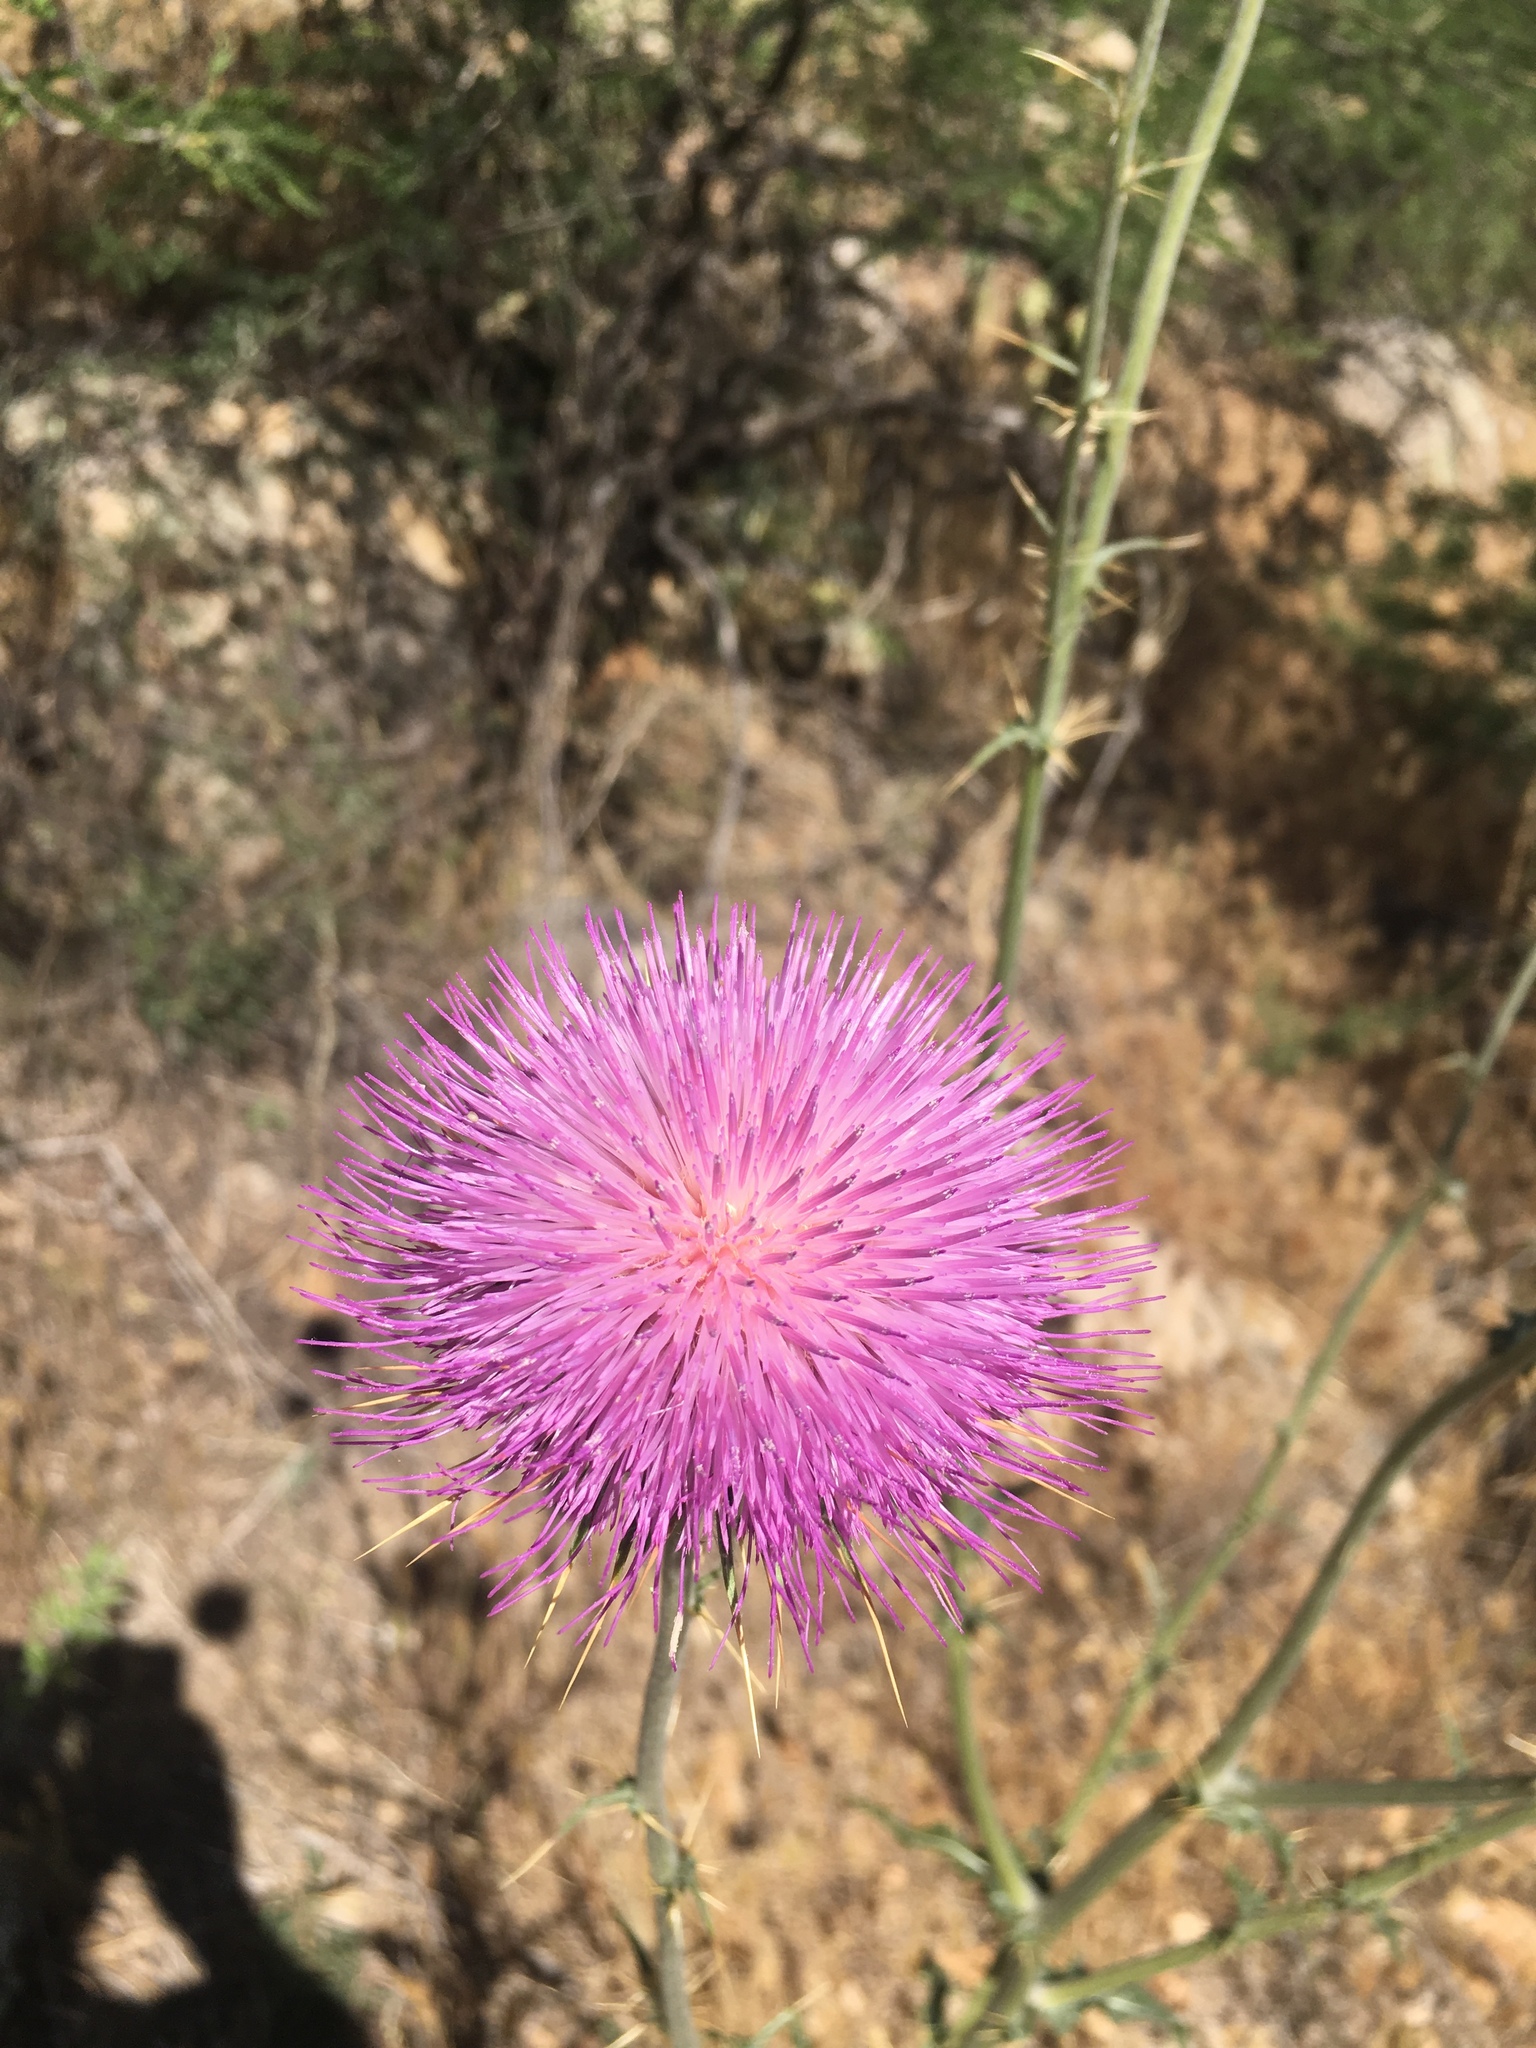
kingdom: Plantae
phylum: Tracheophyta
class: Magnoliopsida
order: Asterales
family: Asteraceae
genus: Cirsium
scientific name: Cirsium neomexicanum
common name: New mexico thistle
